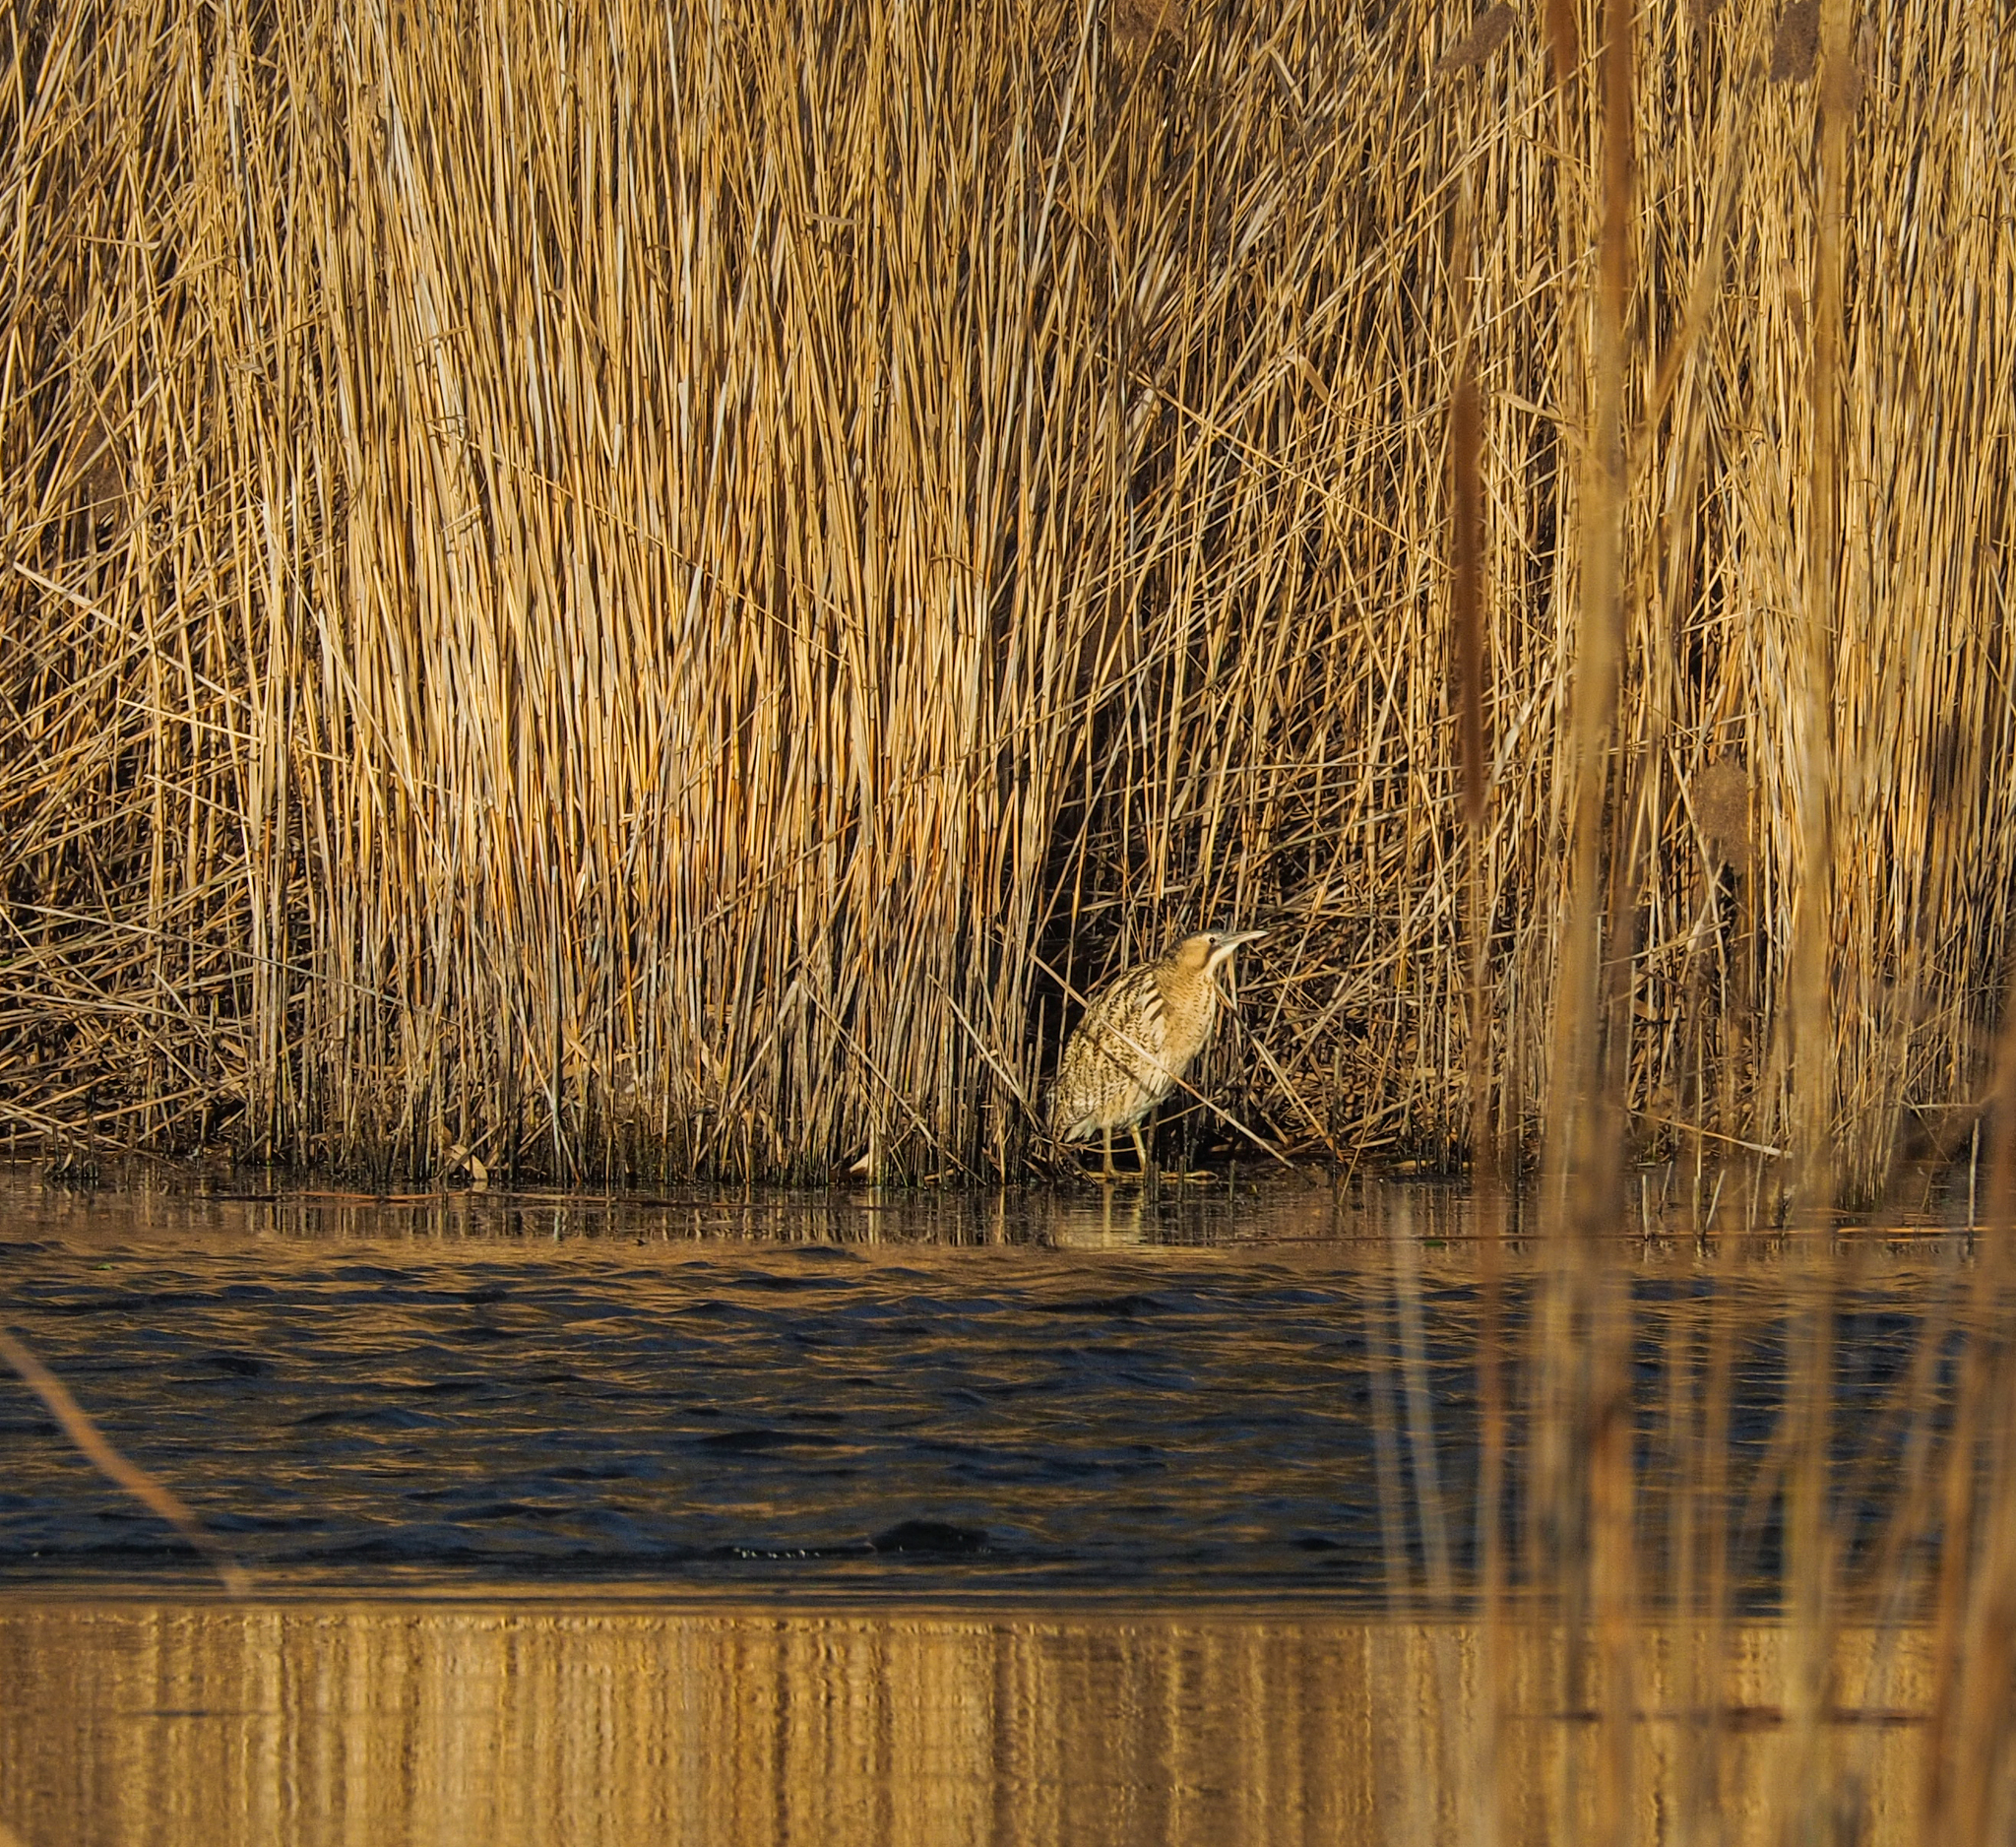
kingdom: Animalia
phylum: Chordata
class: Aves
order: Pelecaniformes
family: Ardeidae
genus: Botaurus
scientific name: Botaurus stellaris
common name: Eurasian bittern
